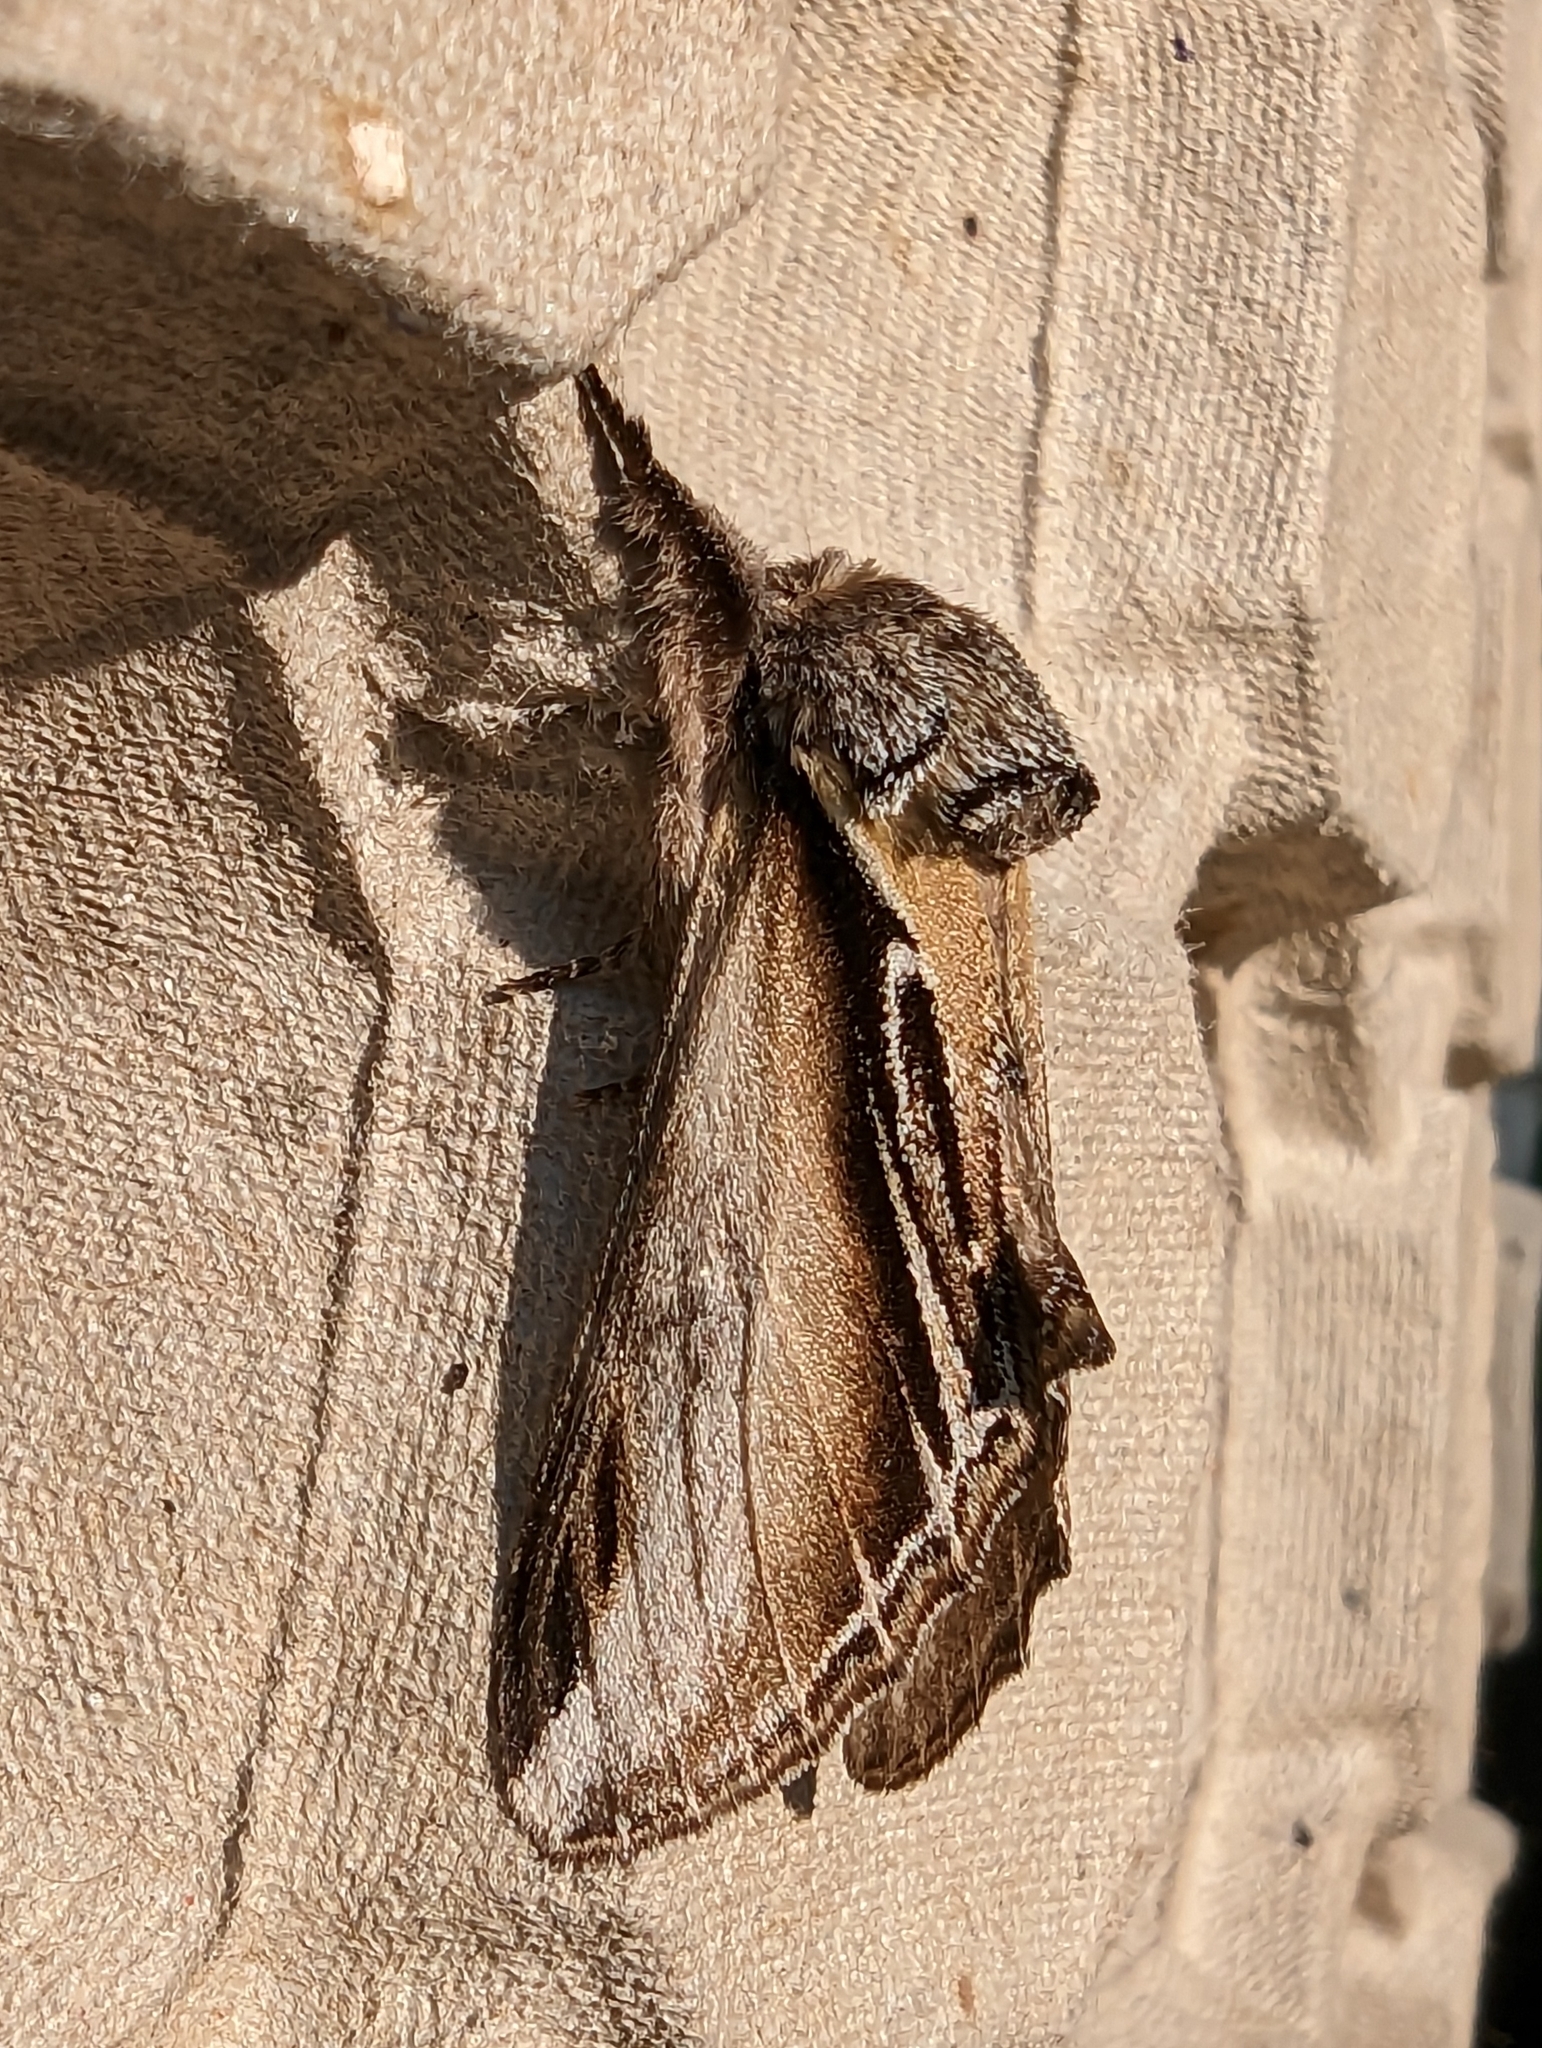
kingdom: Animalia
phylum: Arthropoda
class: Insecta
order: Lepidoptera
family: Notodontidae
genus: Pheosia
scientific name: Pheosia tremula
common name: Swallow prominent
